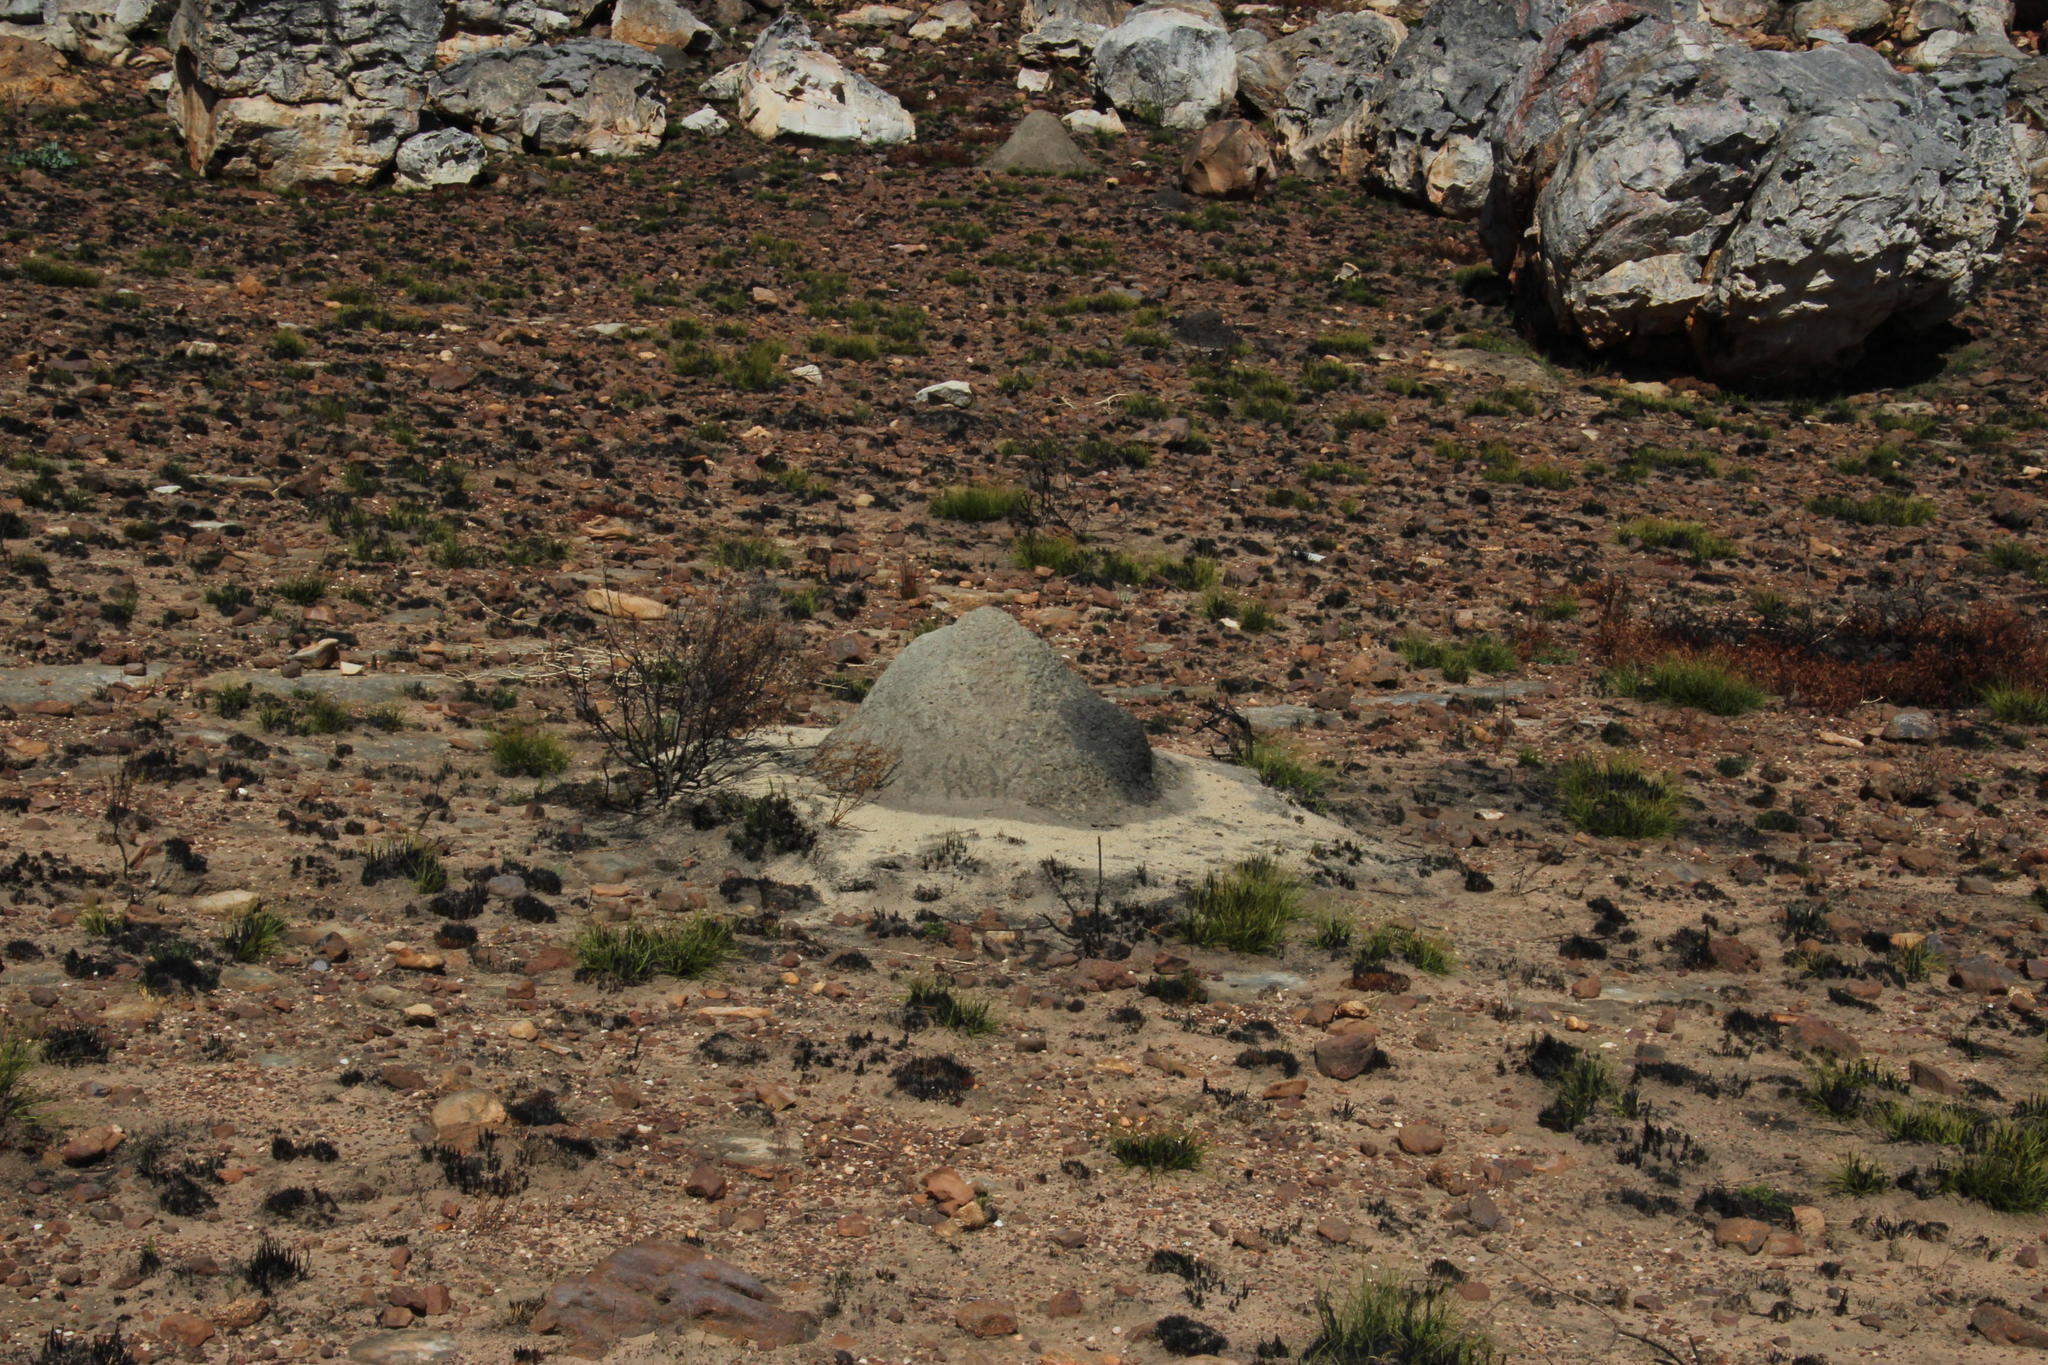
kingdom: Animalia
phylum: Arthropoda
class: Insecta
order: Blattodea
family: Termitidae
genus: Amitermes
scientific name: Amitermes hastatus
